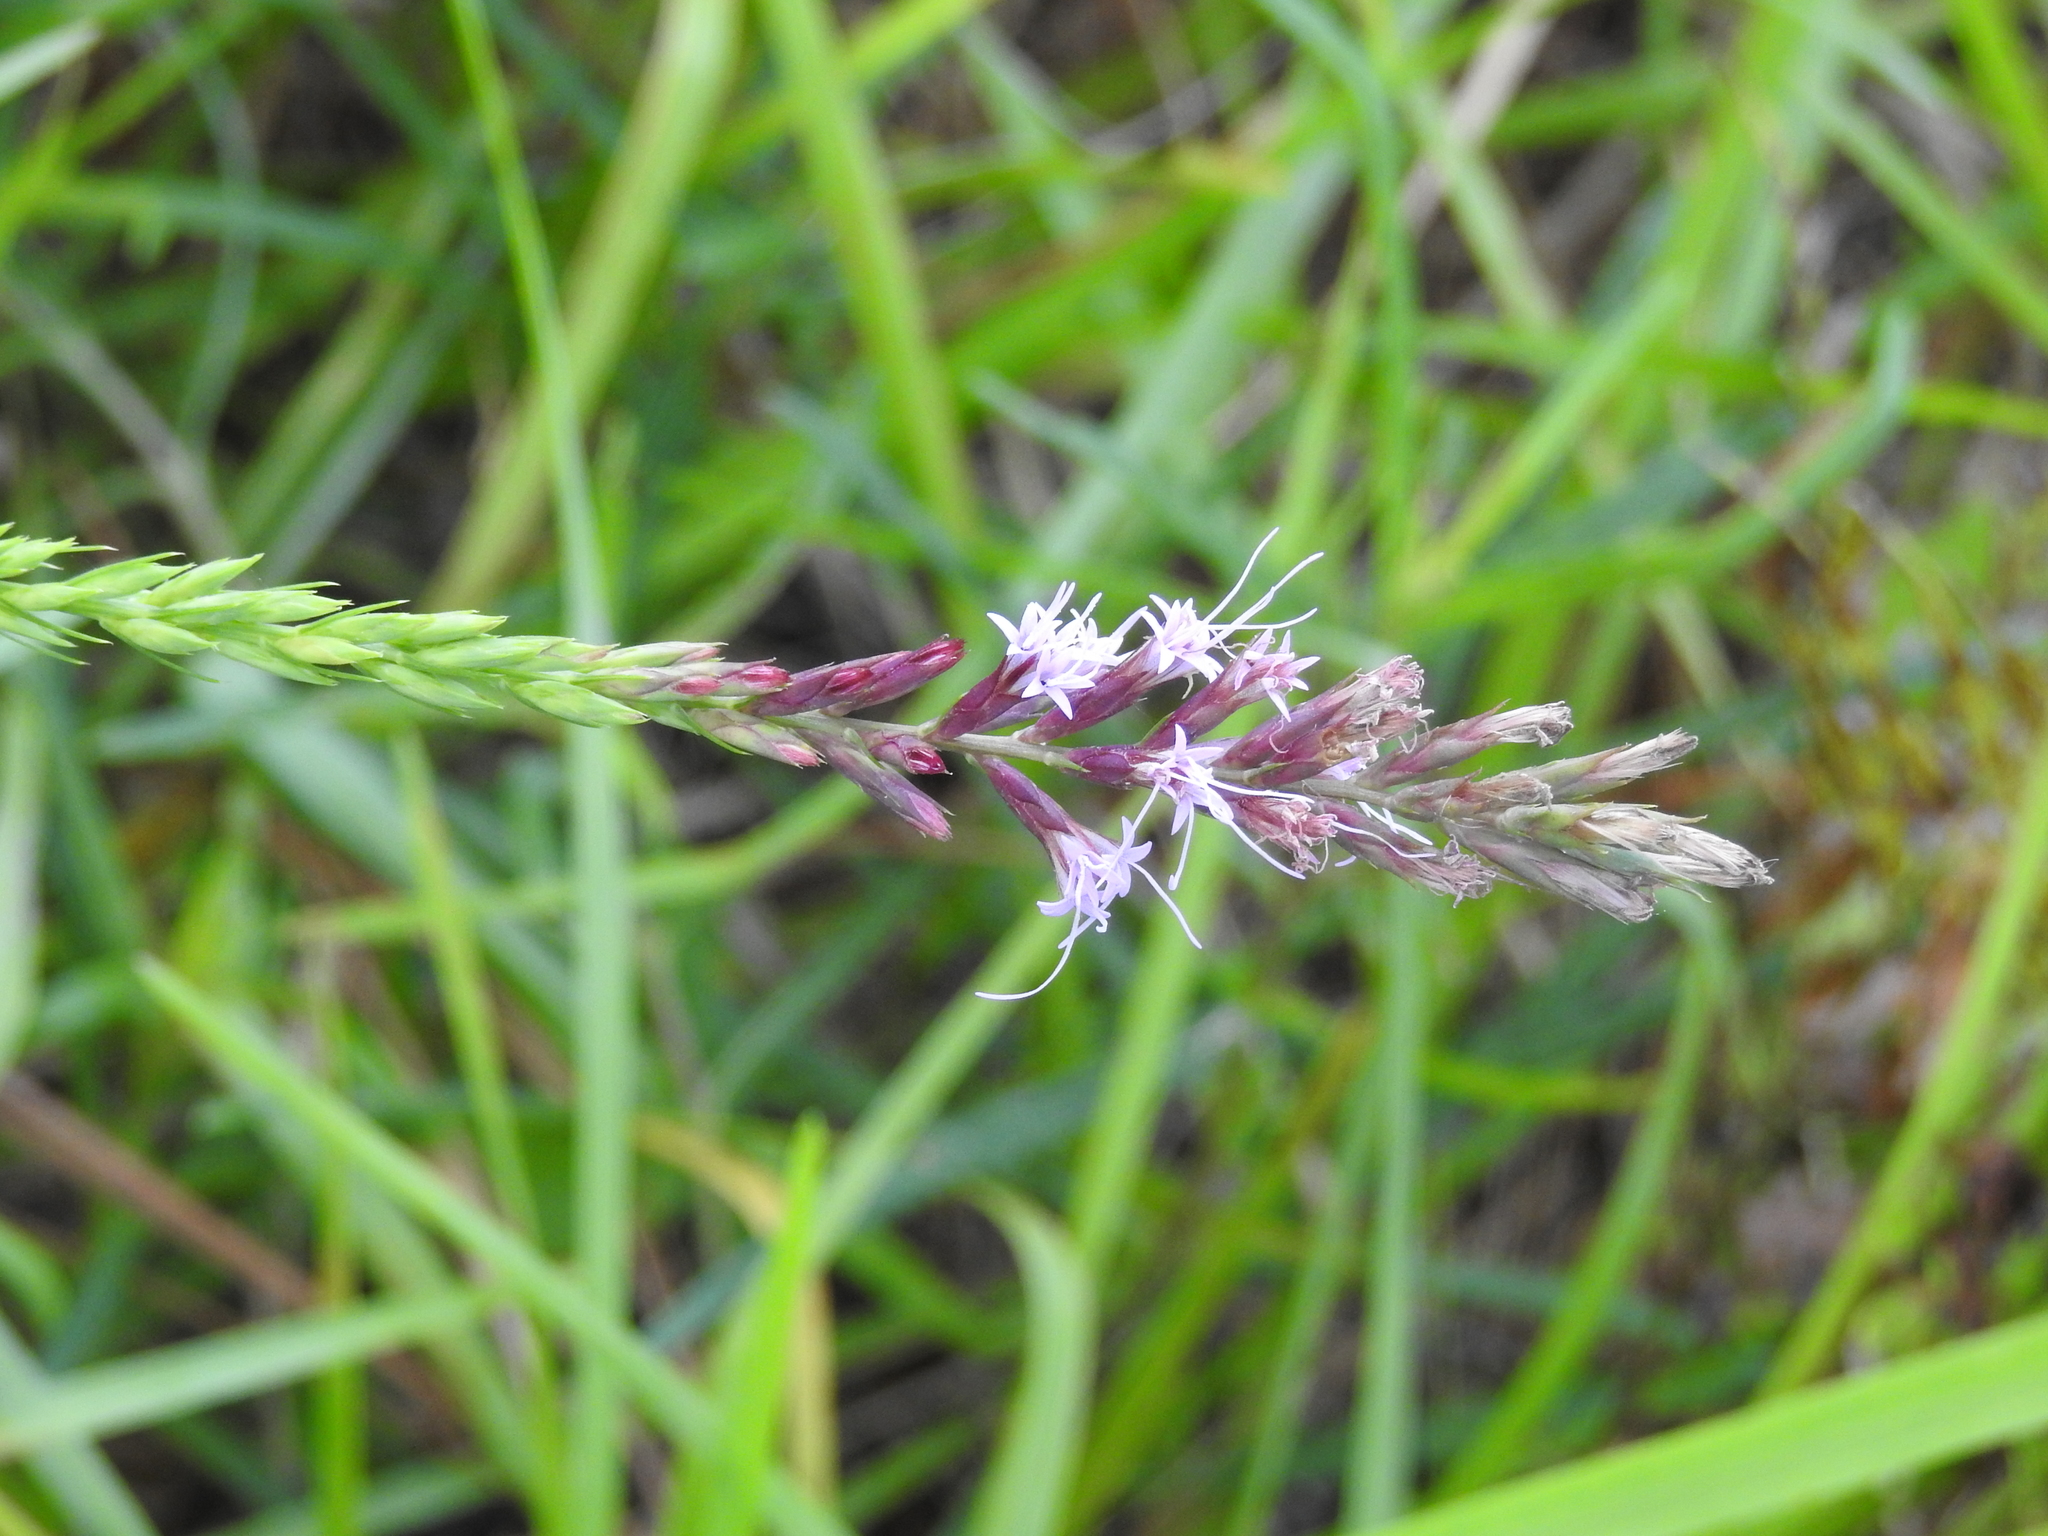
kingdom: Plantae
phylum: Tracheophyta
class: Magnoliopsida
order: Asterales
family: Asteraceae
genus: Liatris
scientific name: Liatris acidota
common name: Gulf coast gayfeather
